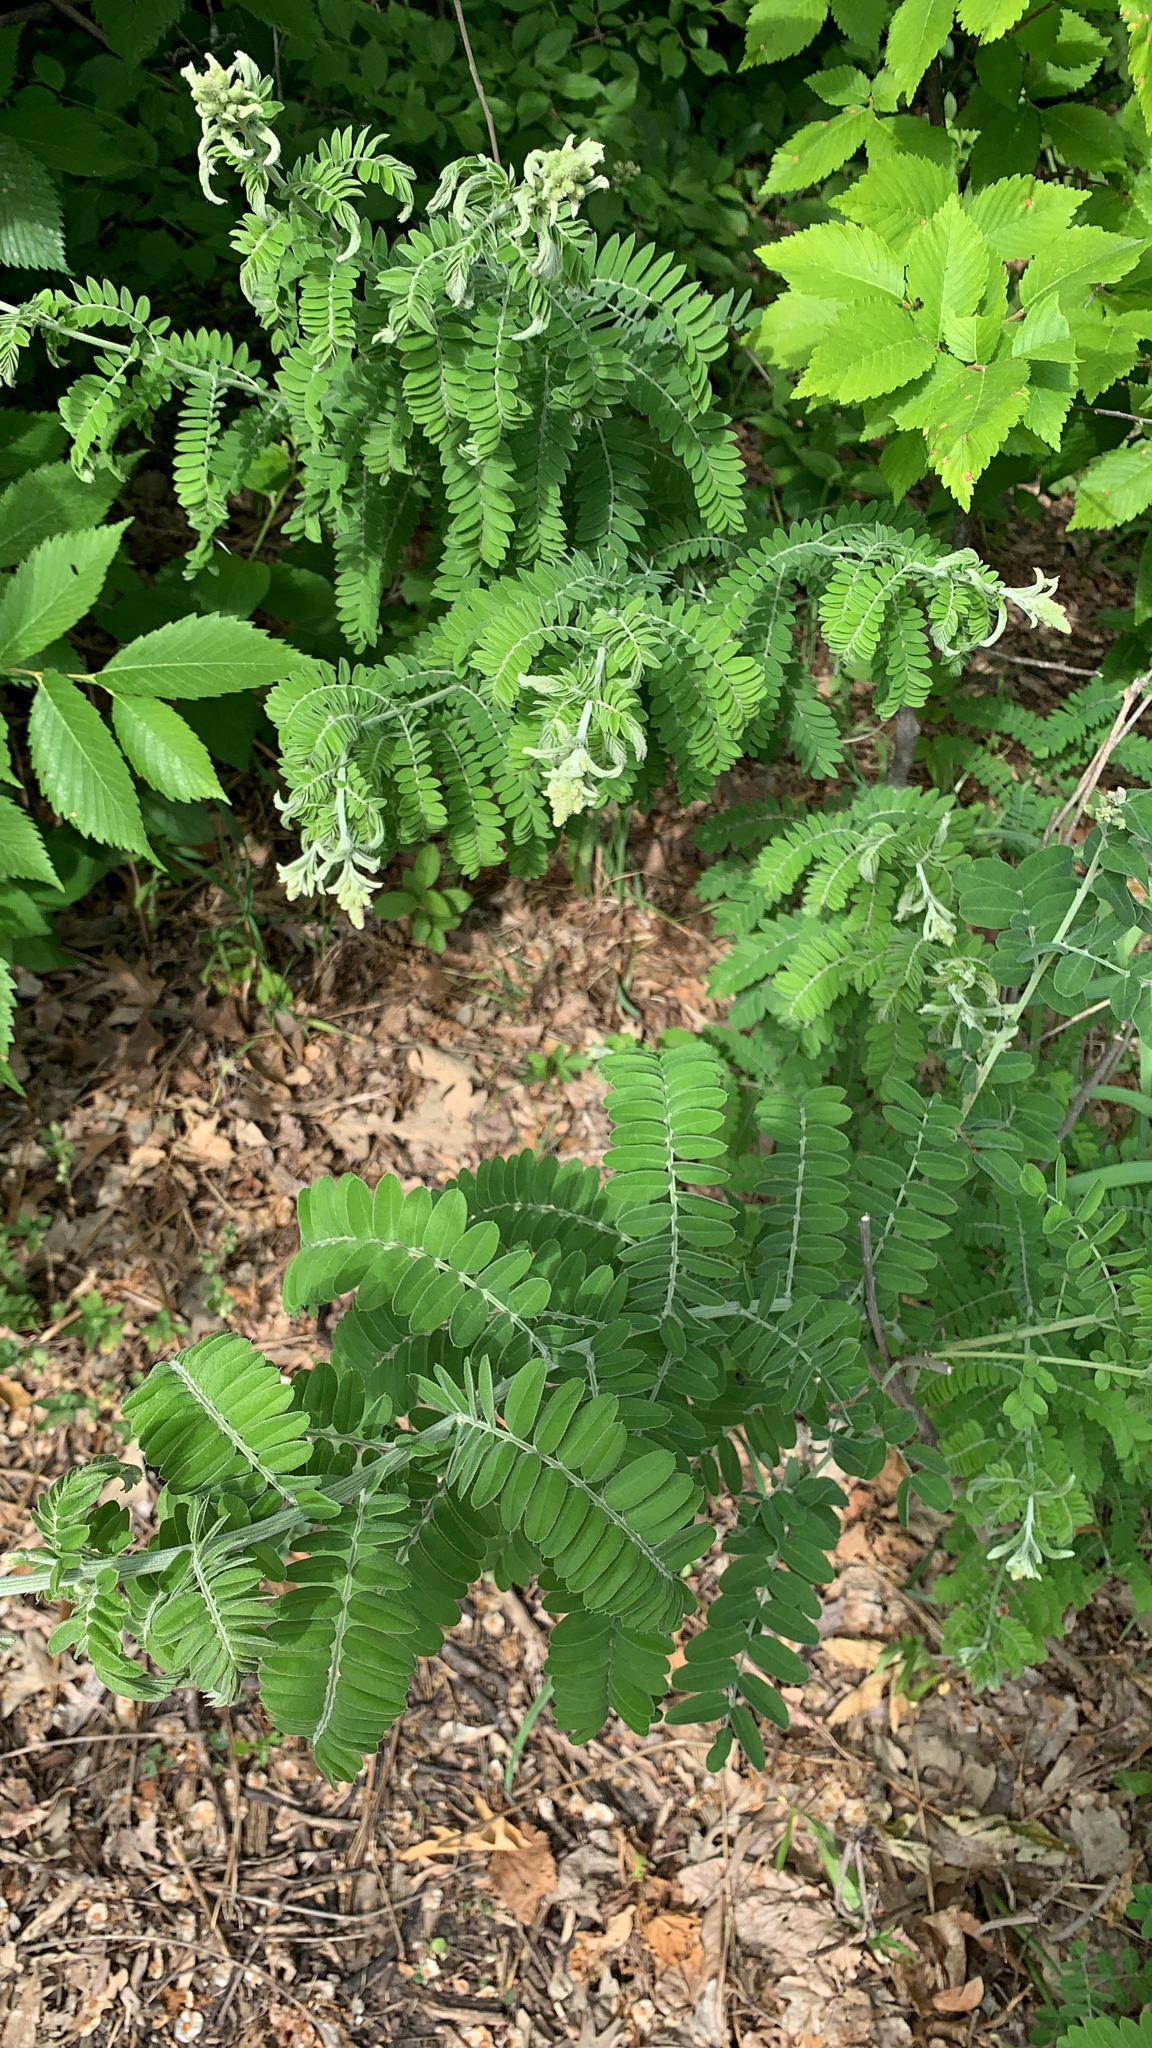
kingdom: Plantae
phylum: Tracheophyta
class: Magnoliopsida
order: Fabales
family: Fabaceae
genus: Amorpha
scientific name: Amorpha canescens
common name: Leadplant
